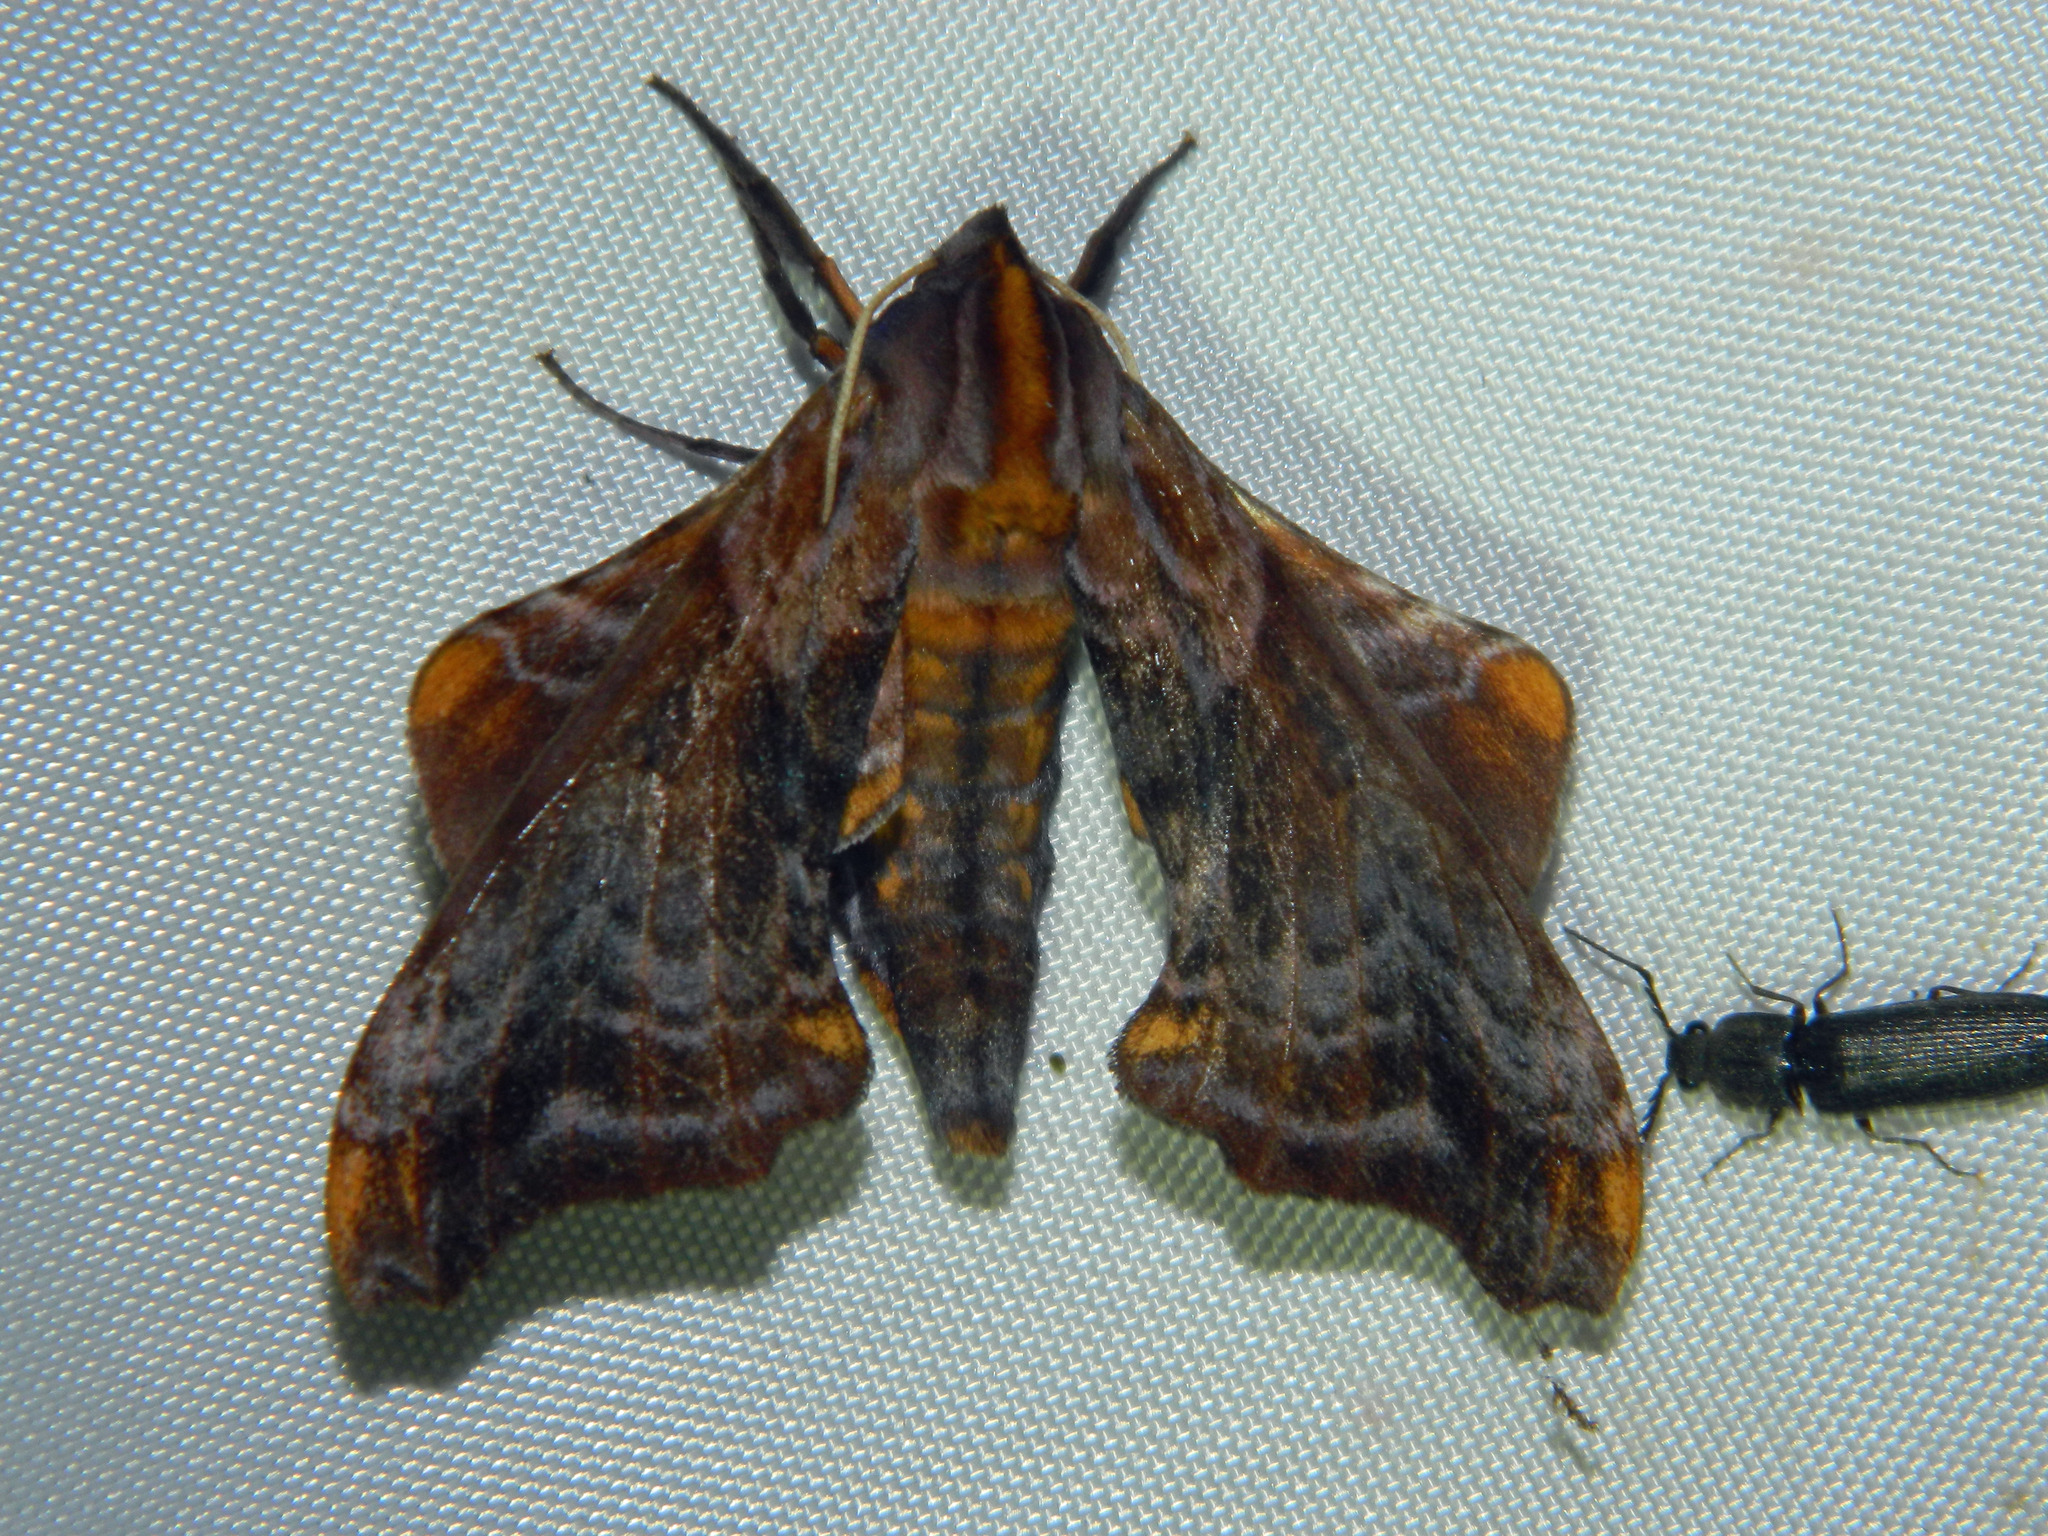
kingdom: Animalia
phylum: Arthropoda
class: Insecta
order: Lepidoptera
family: Sphingidae
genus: Paonias
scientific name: Paonias myops
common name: Small-eyed sphinx
